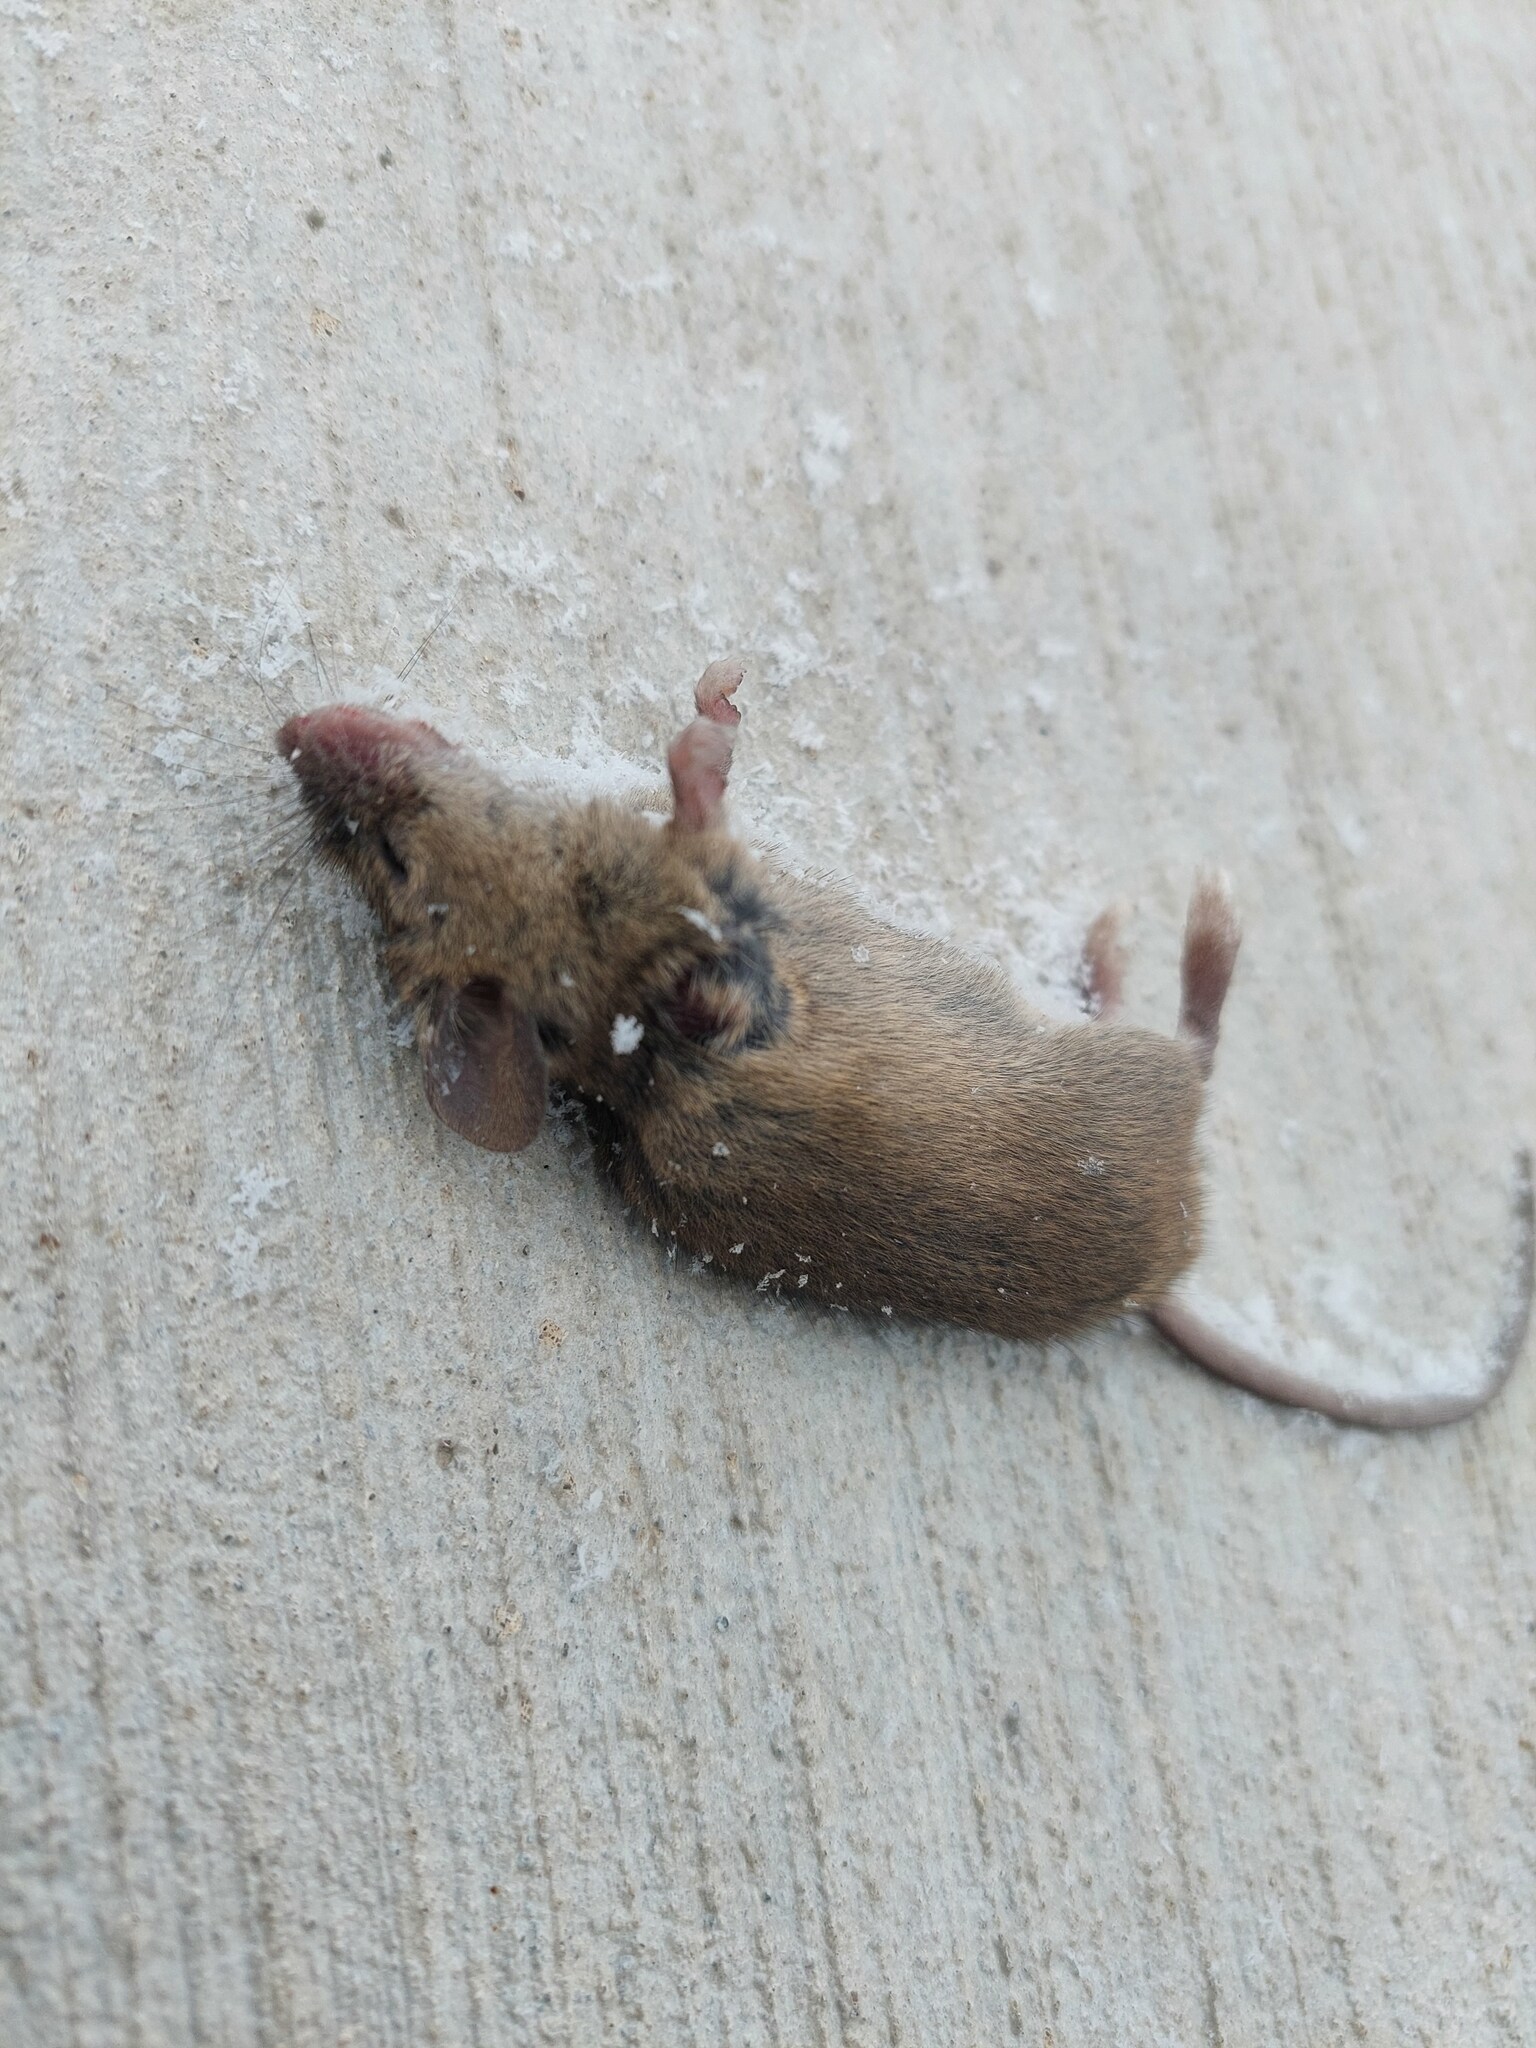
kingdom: Animalia
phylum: Chordata
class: Mammalia
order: Rodentia
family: Muridae
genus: Mus
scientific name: Mus musculus
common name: House mouse
